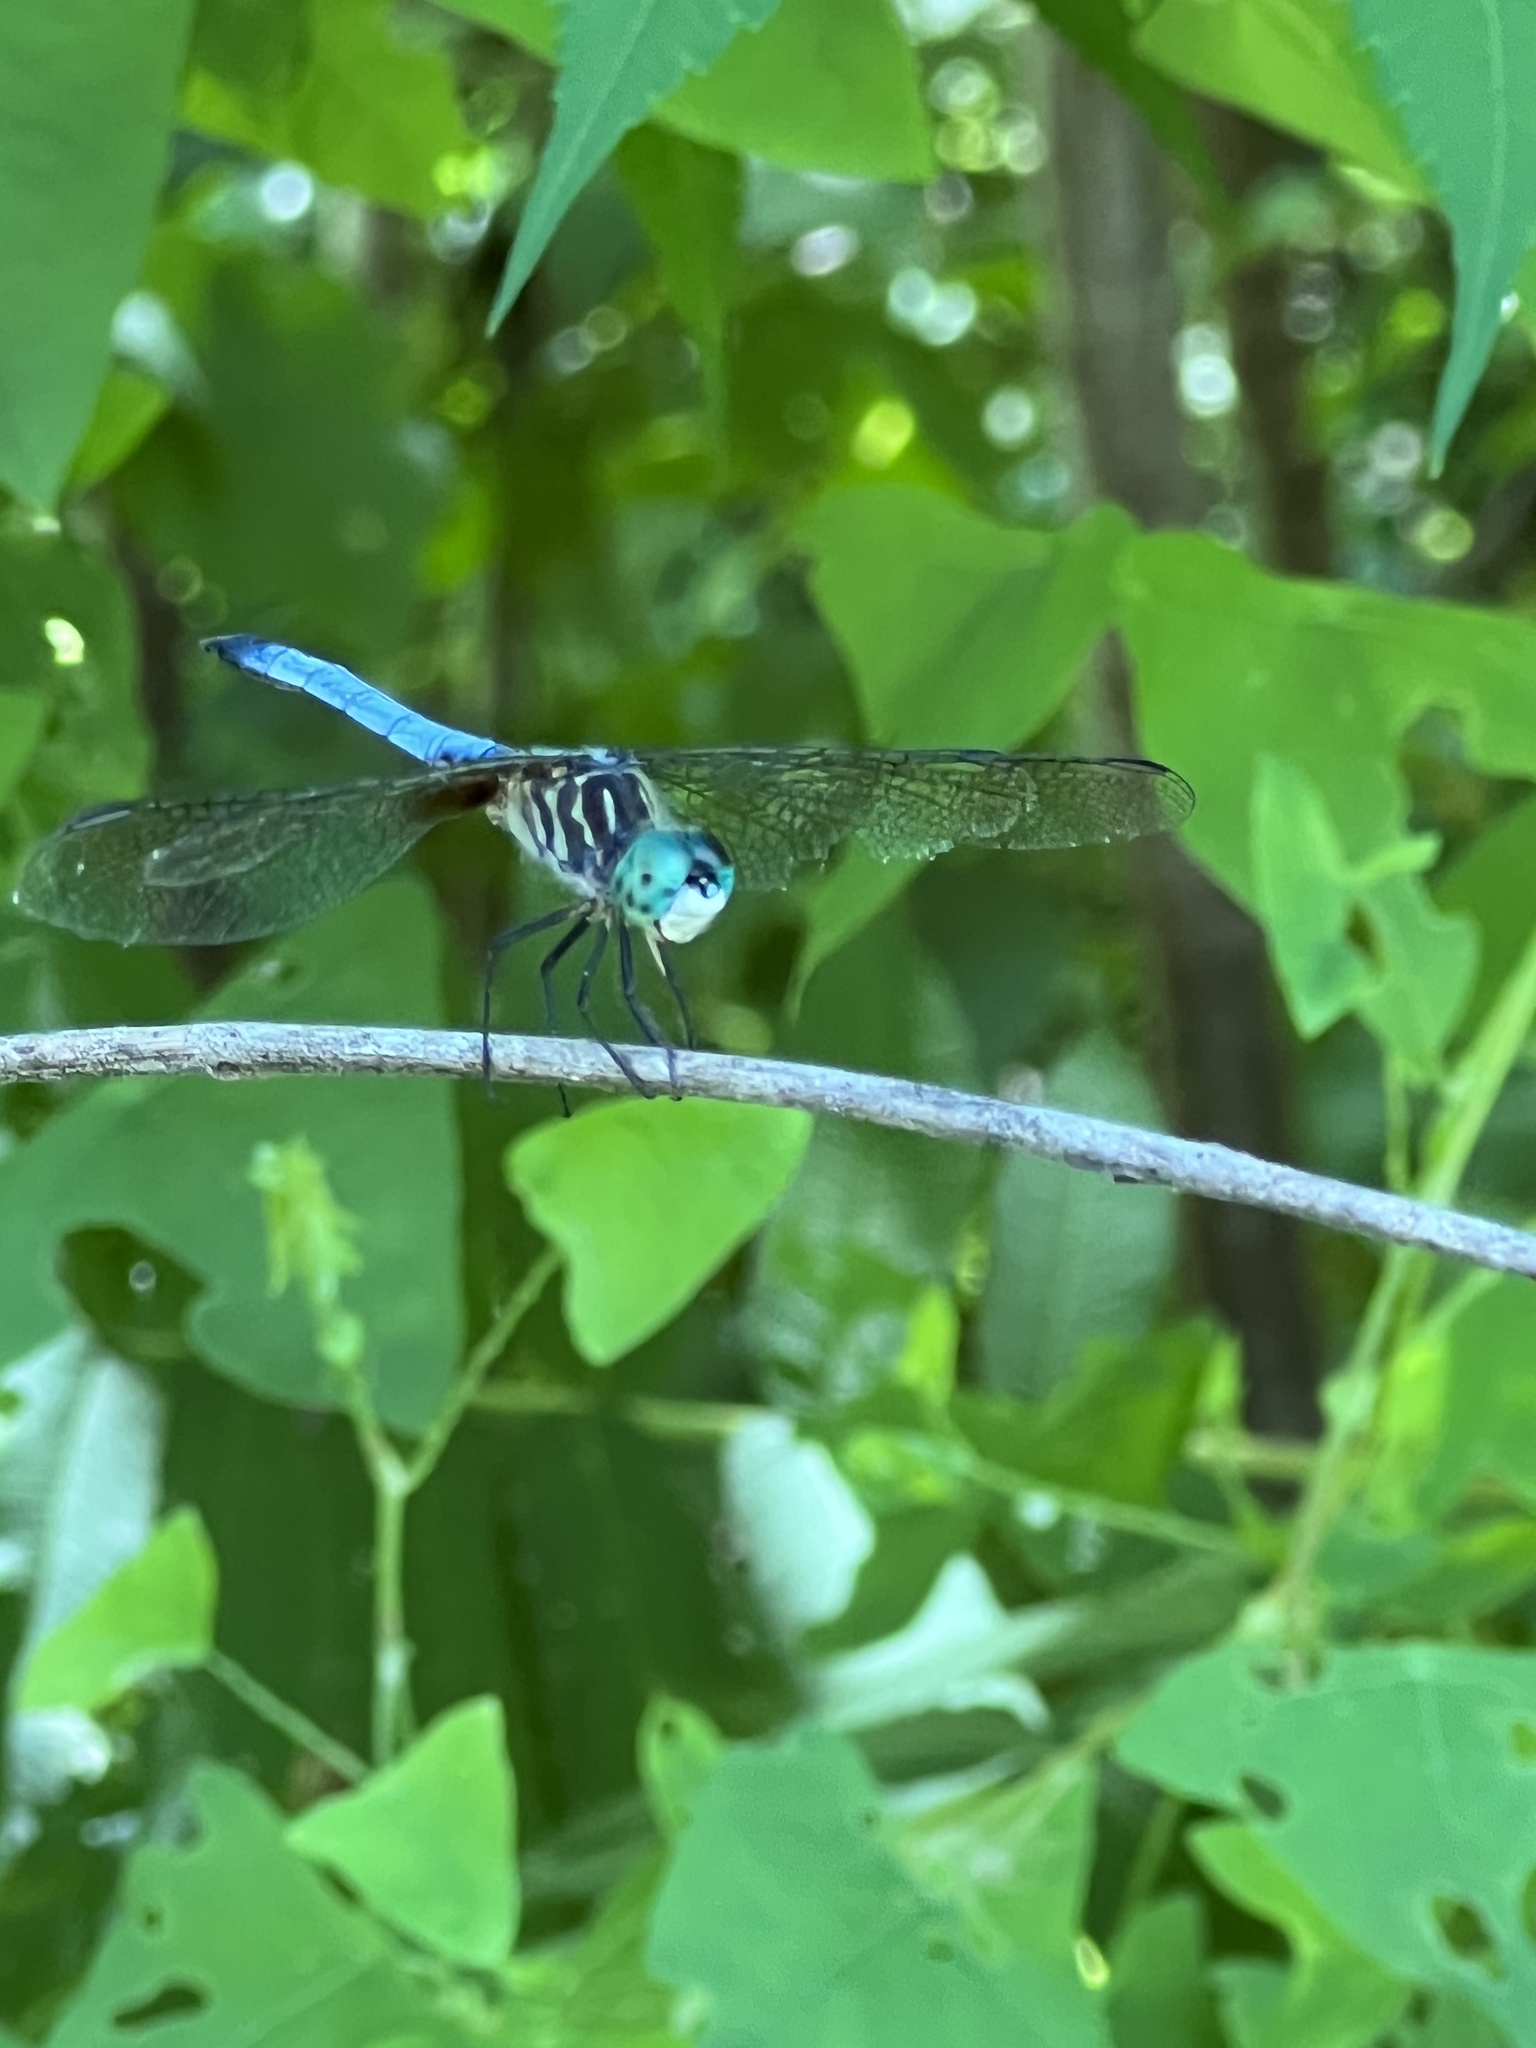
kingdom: Animalia
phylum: Arthropoda
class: Insecta
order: Odonata
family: Libellulidae
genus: Pachydiplax
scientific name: Pachydiplax longipennis
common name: Blue dasher
